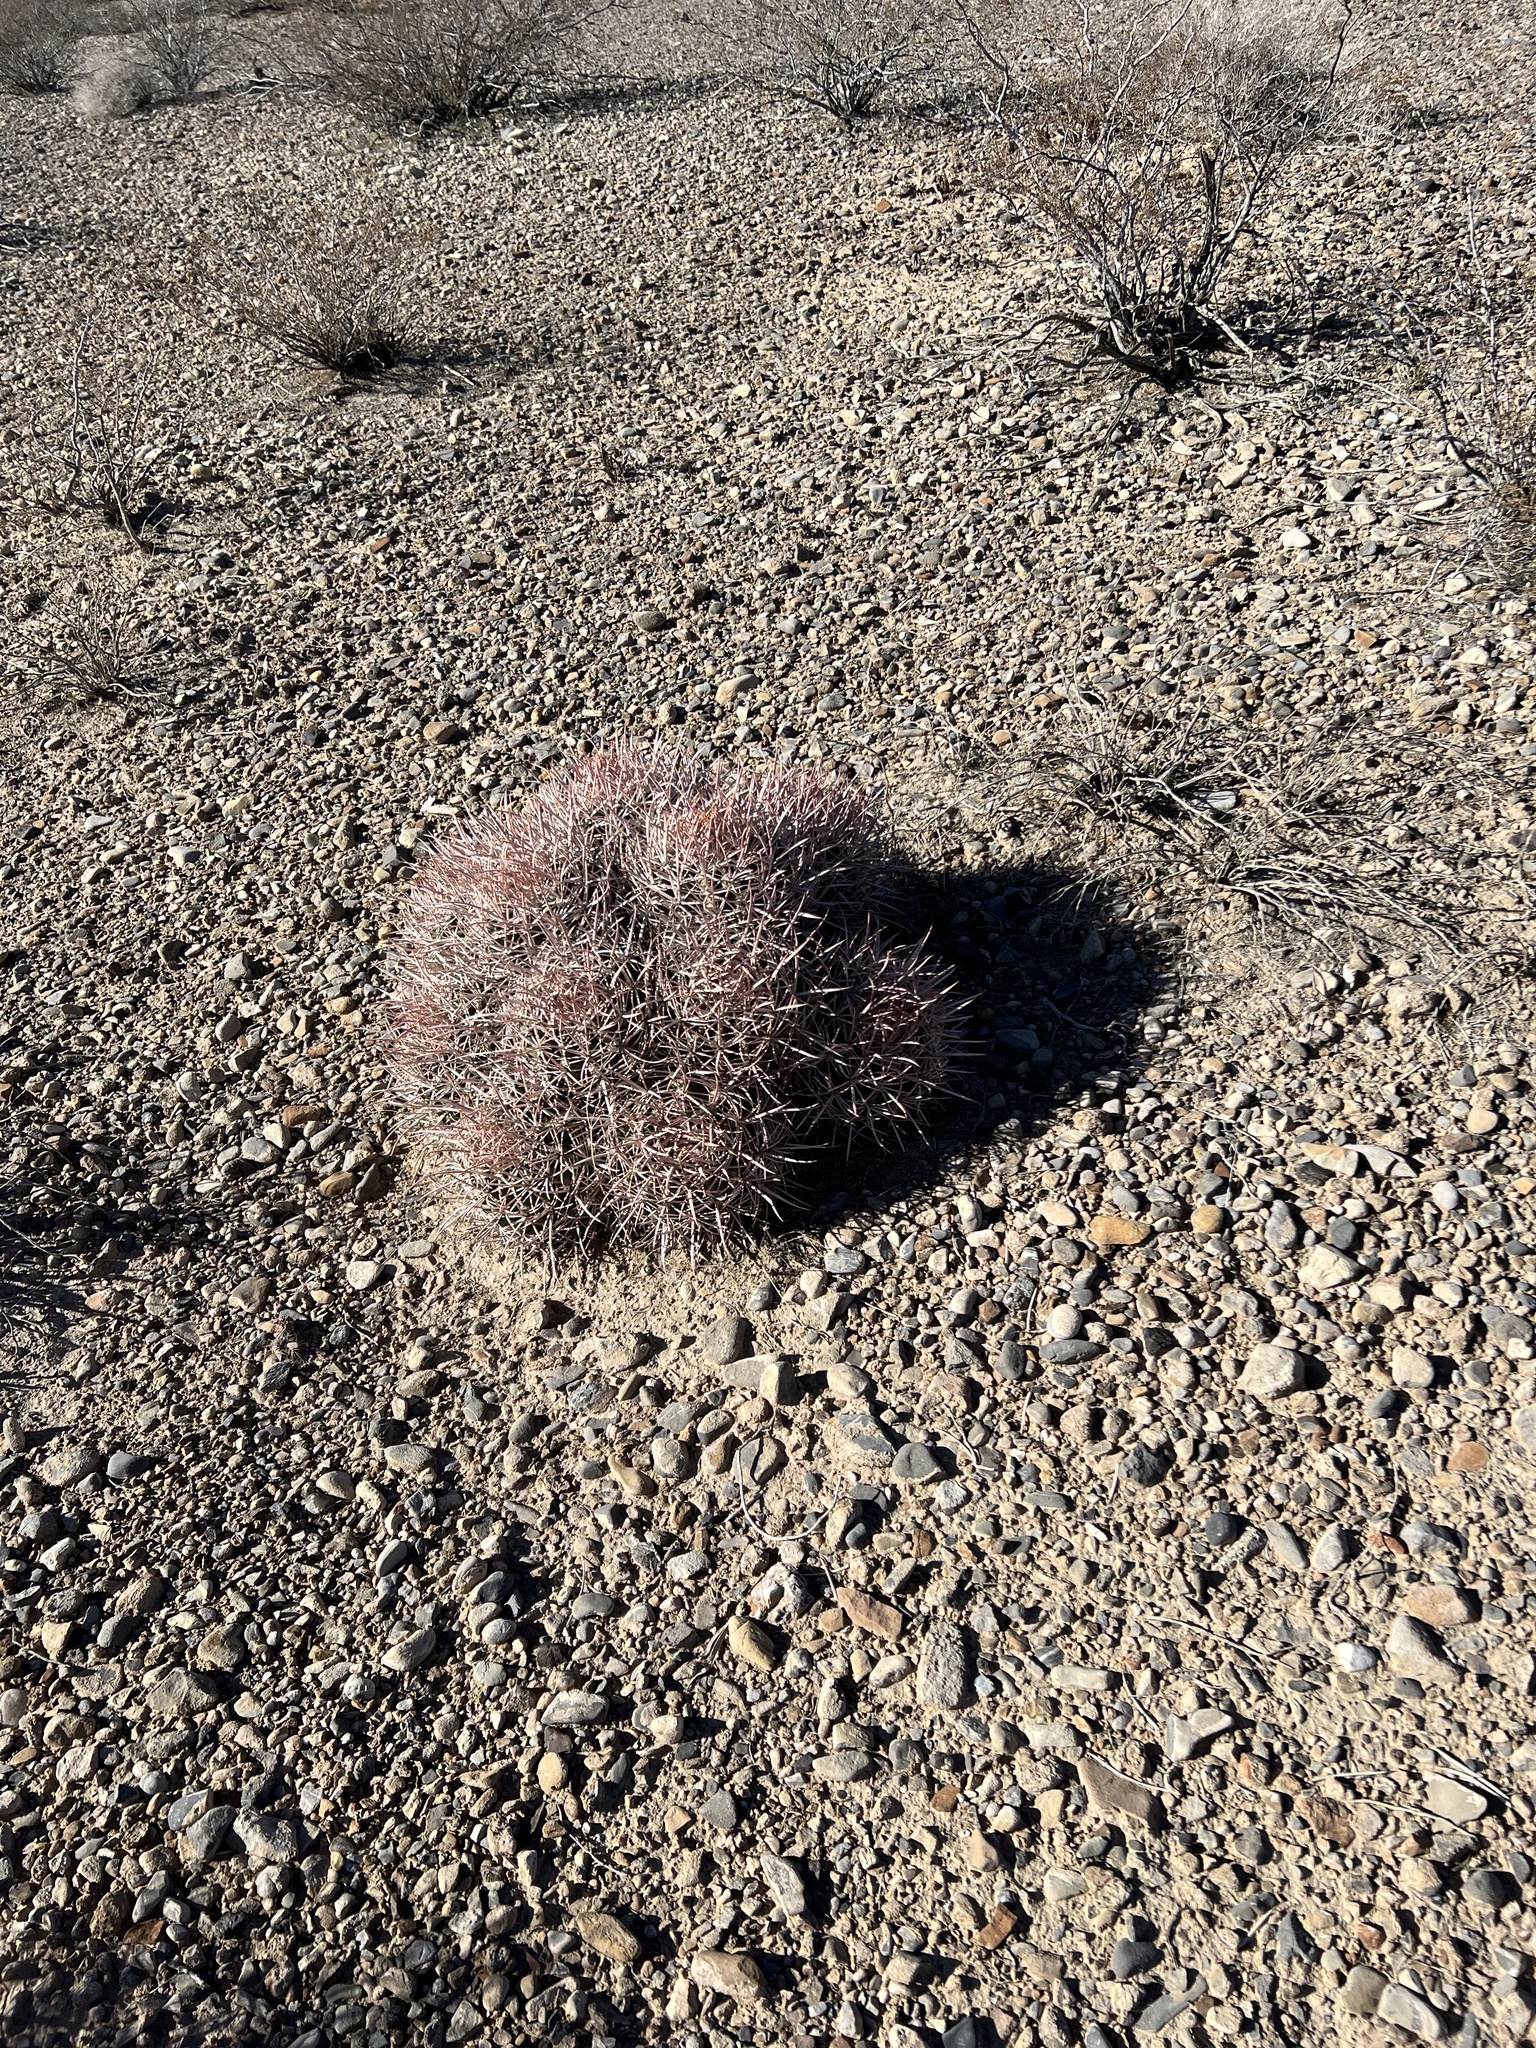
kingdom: Plantae
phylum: Tracheophyta
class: Magnoliopsida
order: Caryophyllales
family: Cactaceae
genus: Echinocactus
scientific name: Echinocactus polycephalus
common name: Cottontop cactus
